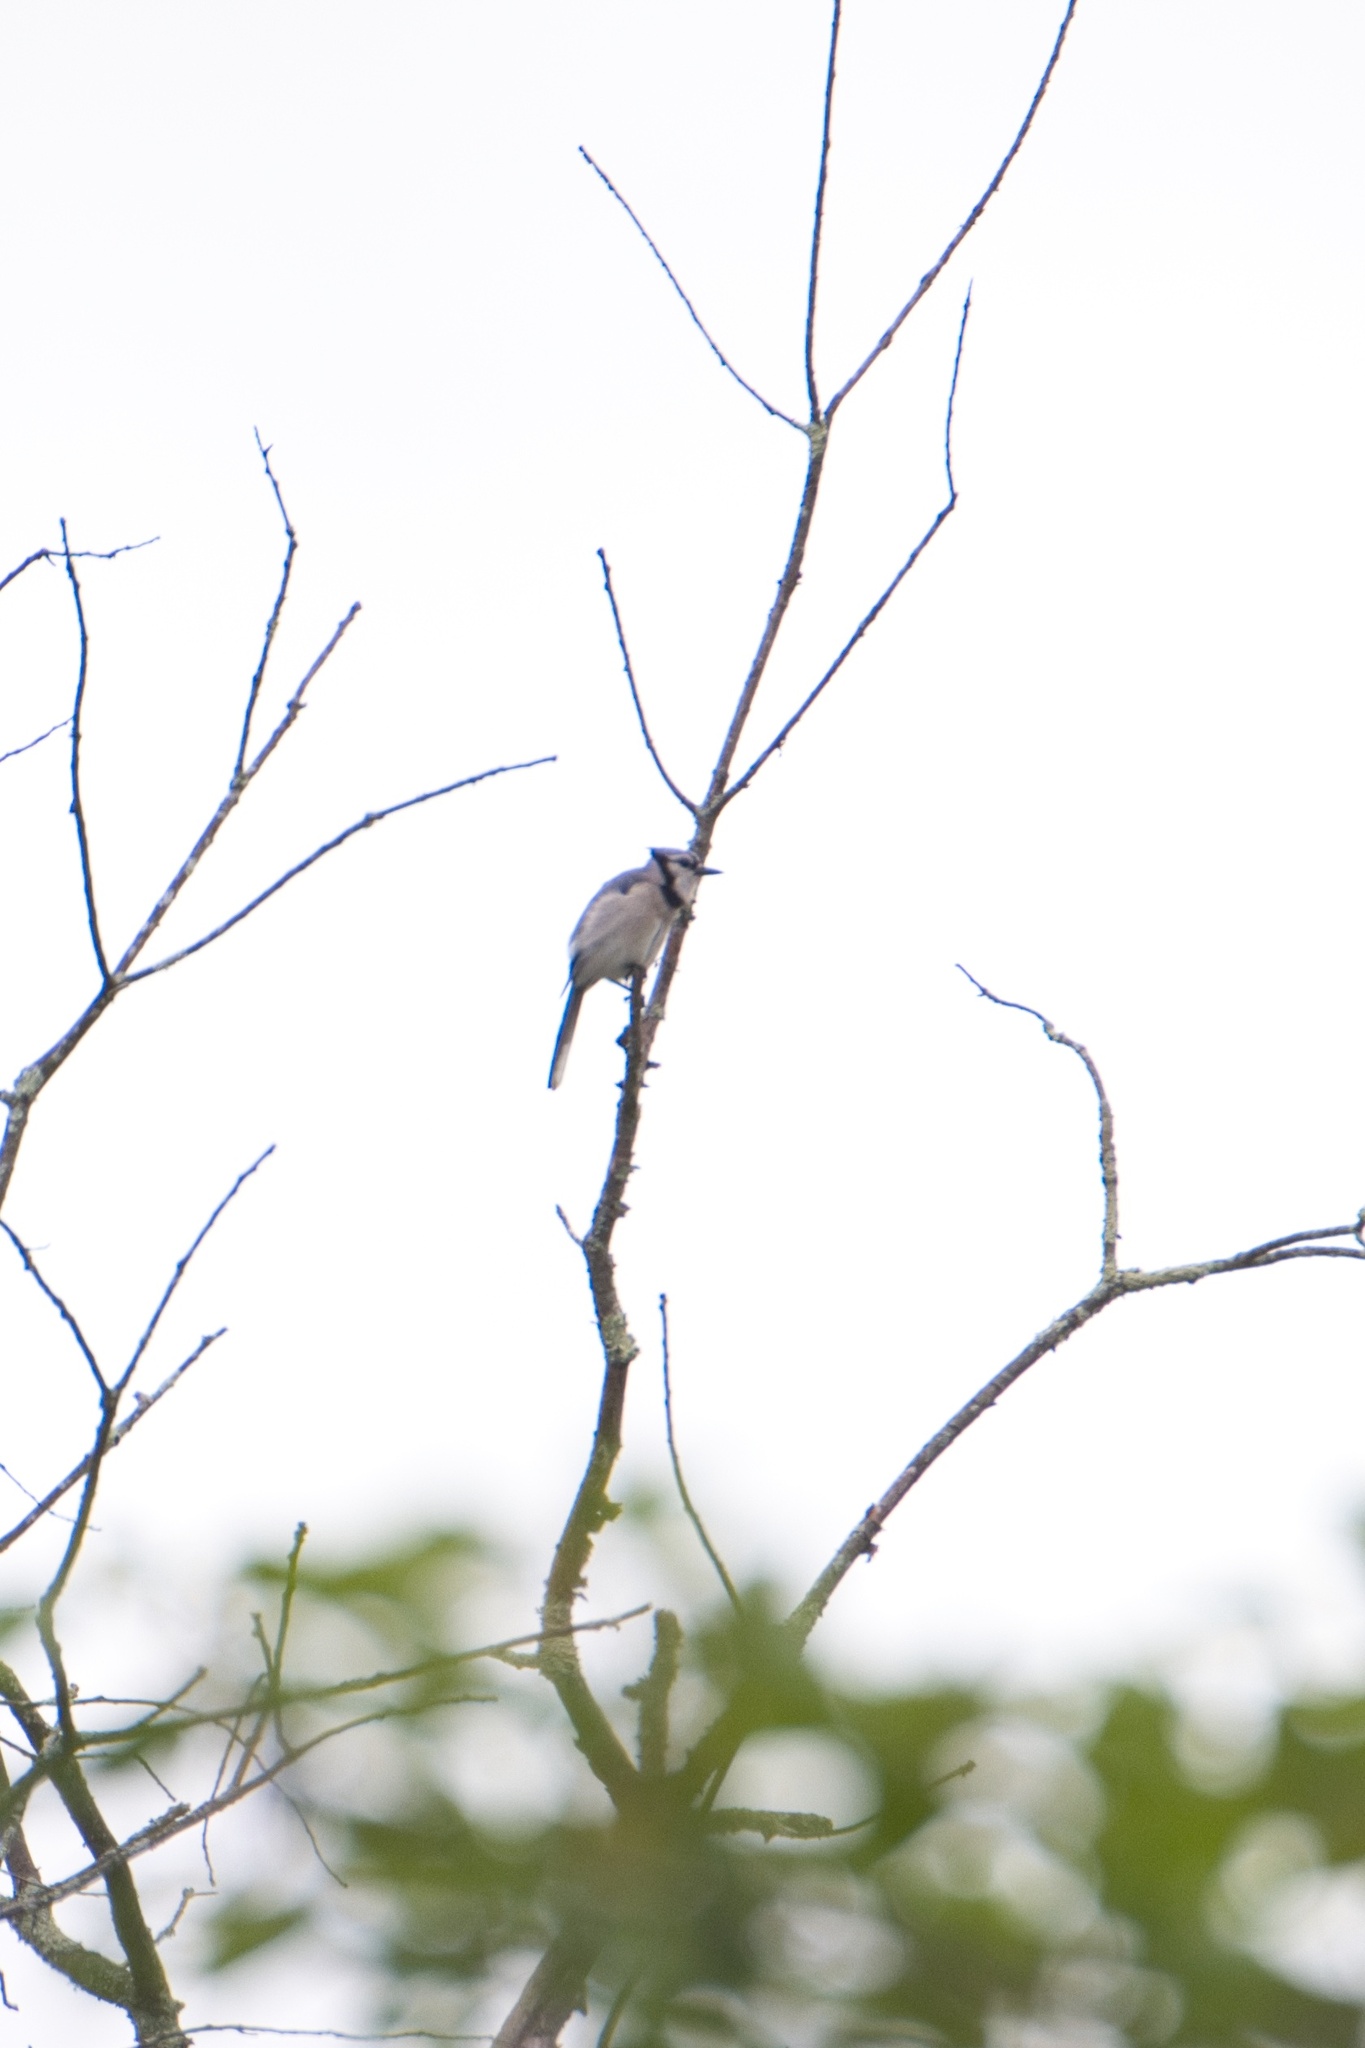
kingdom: Animalia
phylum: Chordata
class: Aves
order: Passeriformes
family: Corvidae
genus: Cyanocitta
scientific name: Cyanocitta cristata
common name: Blue jay
